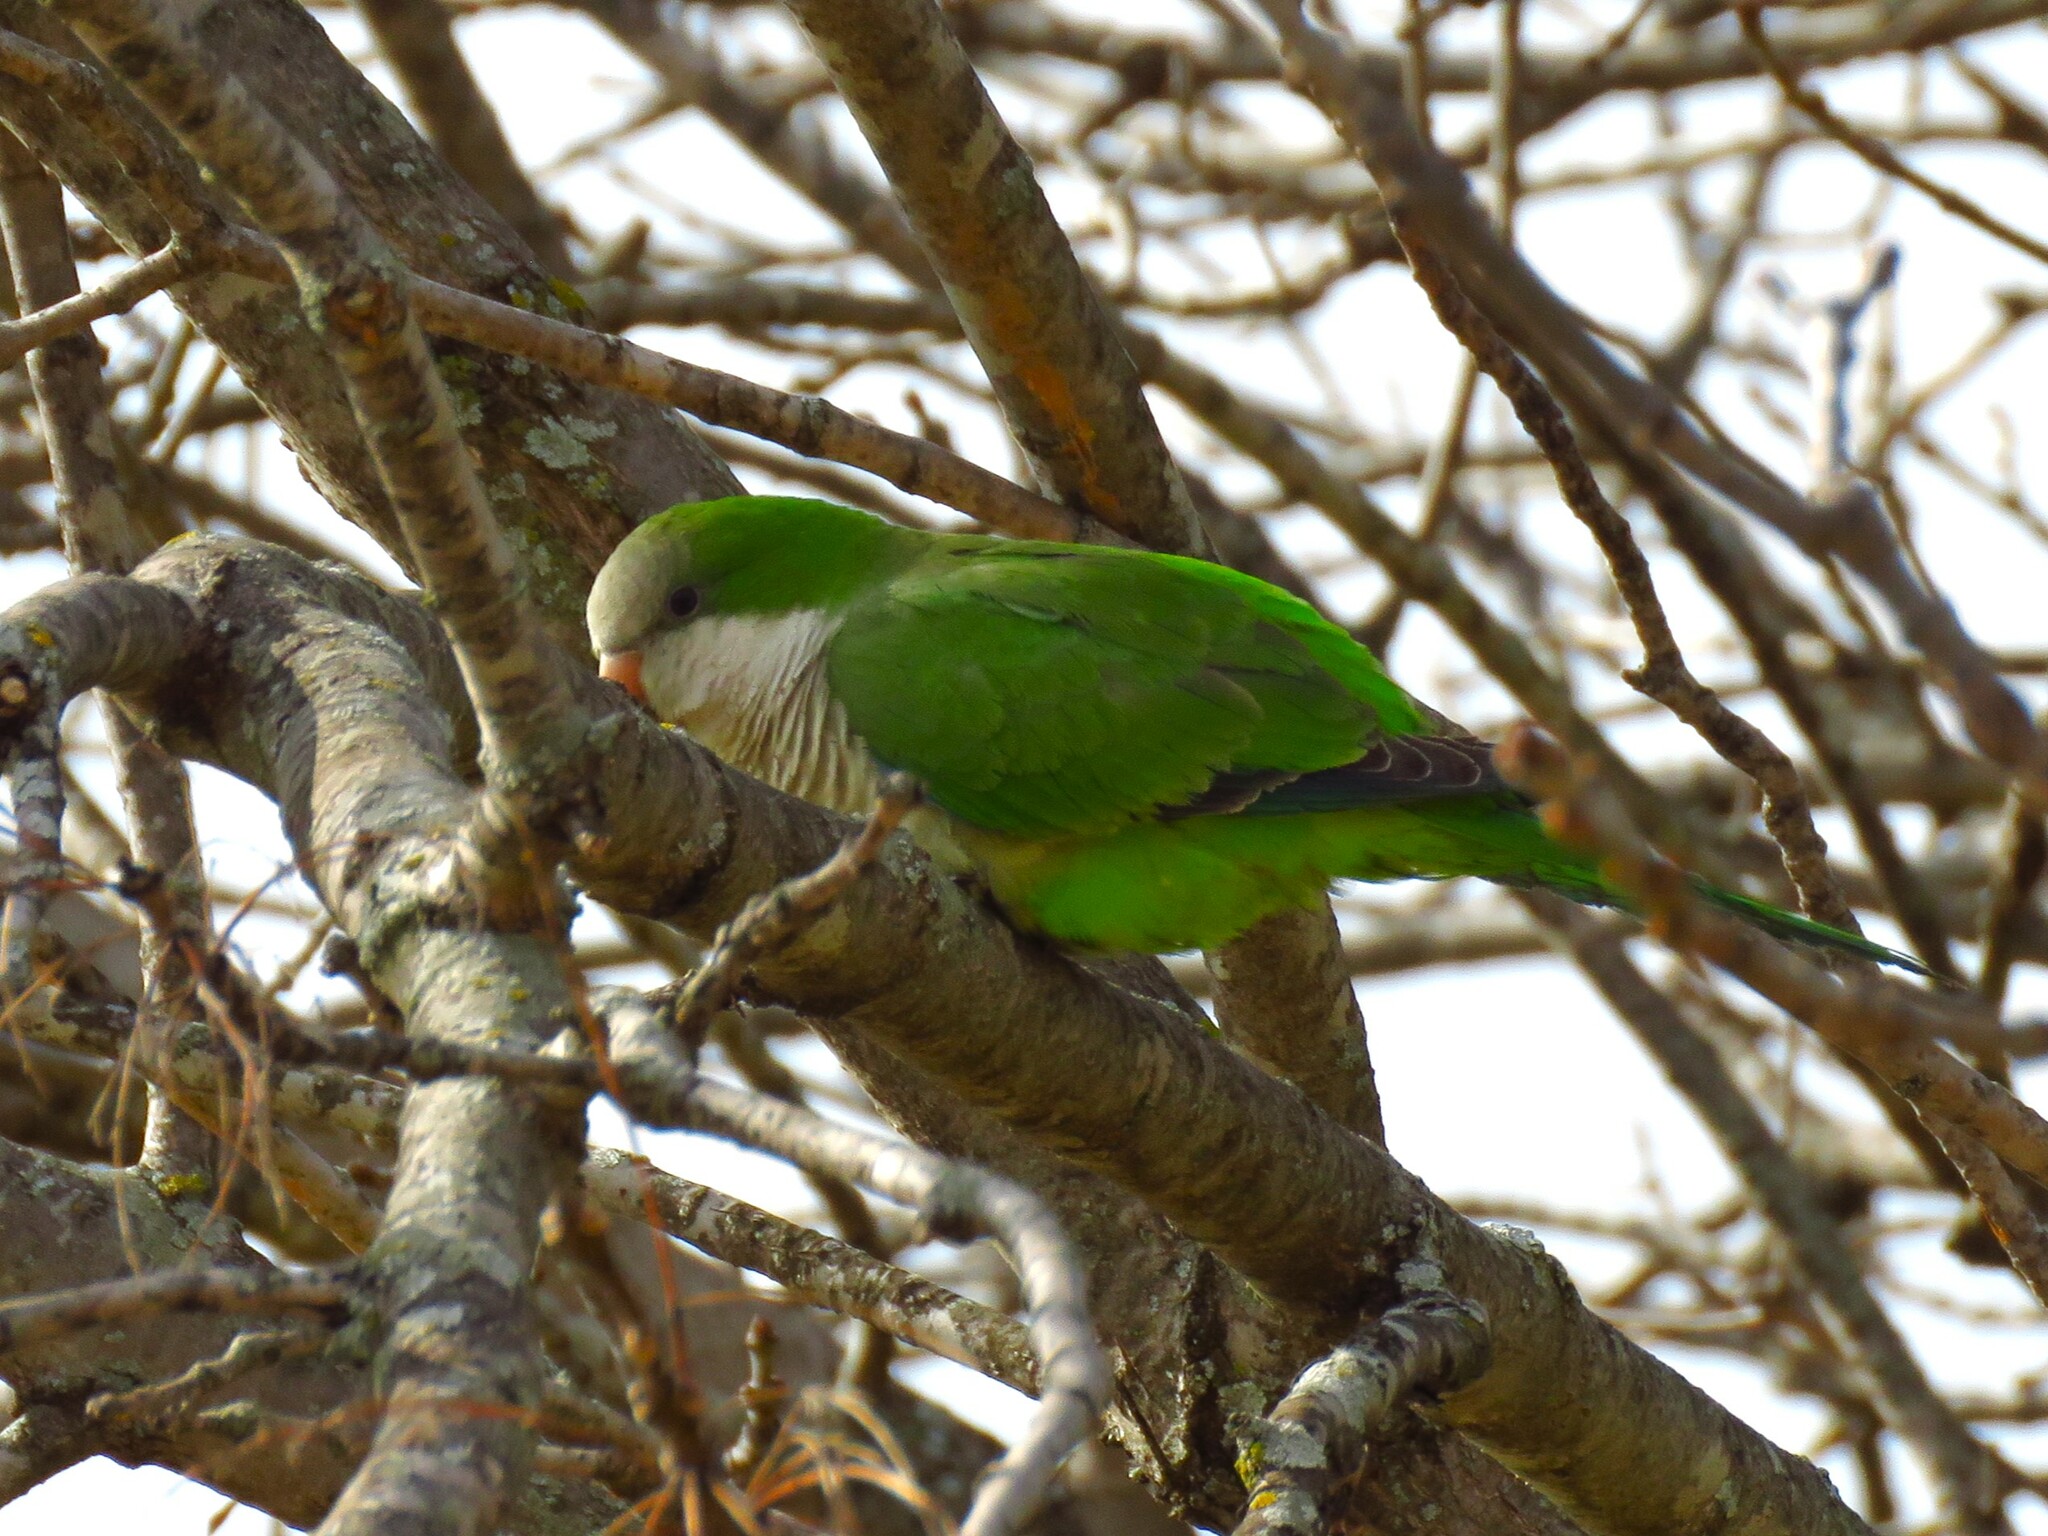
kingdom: Animalia
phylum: Chordata
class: Aves
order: Psittaciformes
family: Psittacidae
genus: Myiopsitta
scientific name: Myiopsitta monachus
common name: Monk parakeet
